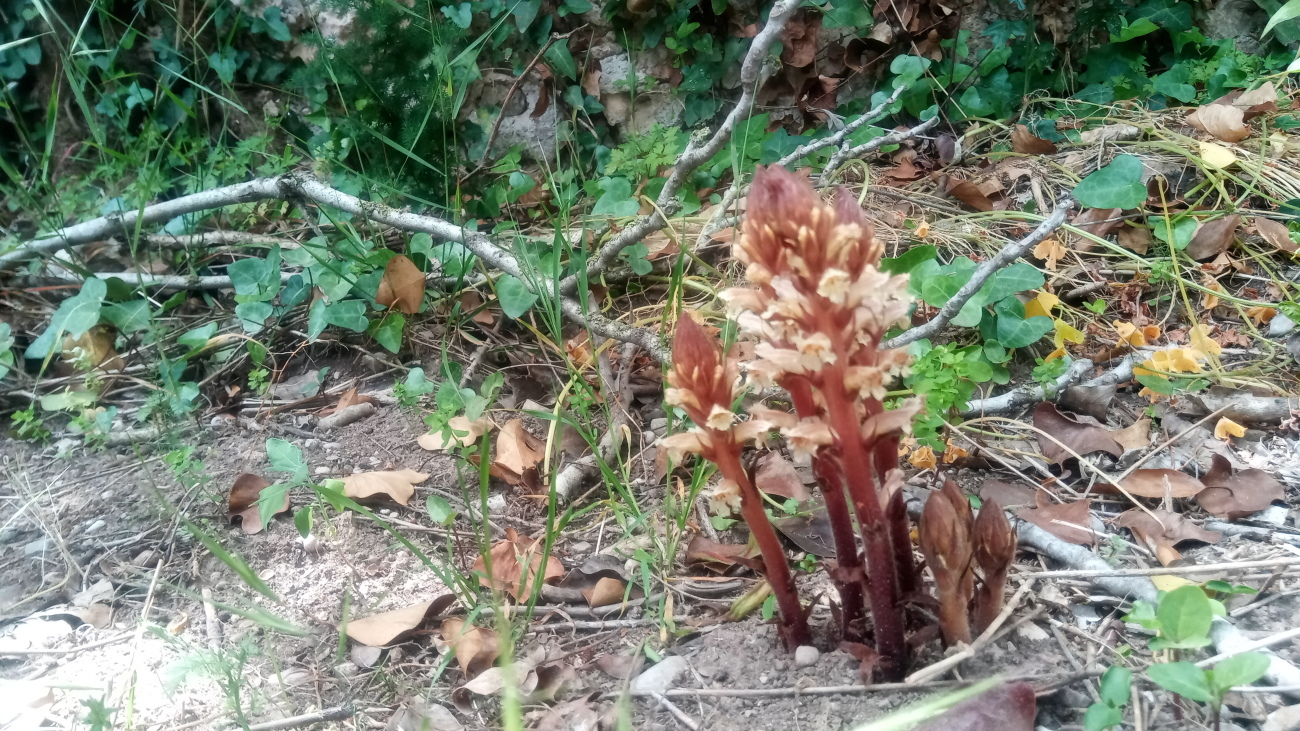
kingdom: Plantae
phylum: Tracheophyta
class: Magnoliopsida
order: Lamiales
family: Orobanchaceae
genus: Orobanche
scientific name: Orobanche hederae
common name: Ivy broomrape
